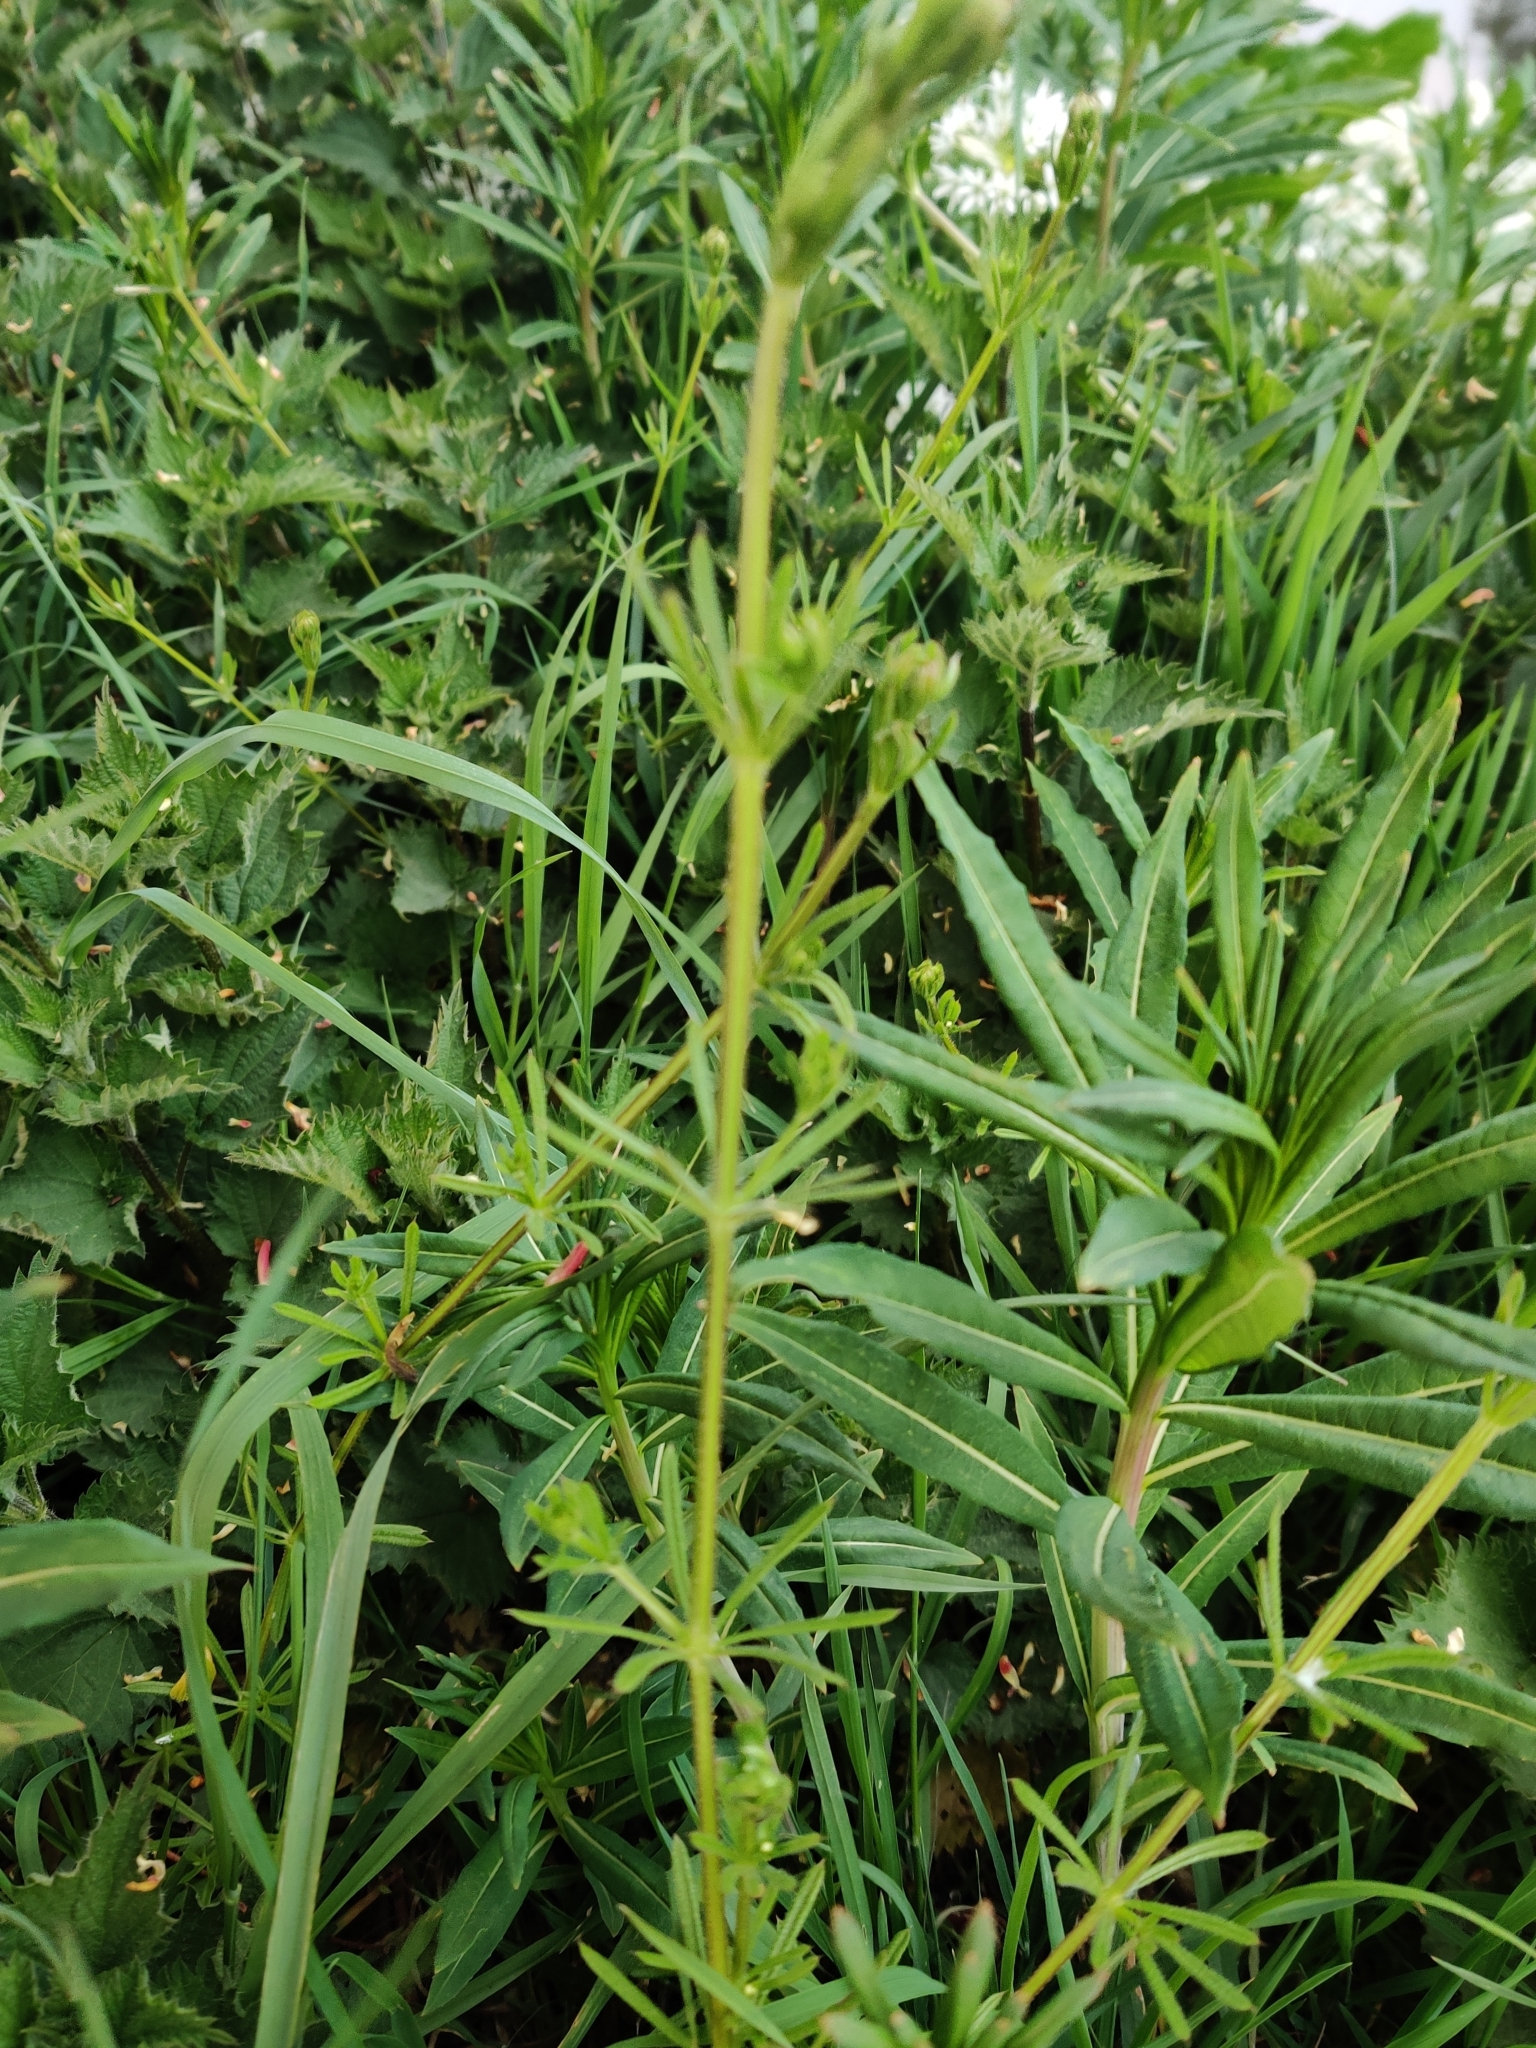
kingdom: Plantae
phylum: Tracheophyta
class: Magnoliopsida
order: Gentianales
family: Rubiaceae
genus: Galium
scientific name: Galium aparine
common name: Cleavers
